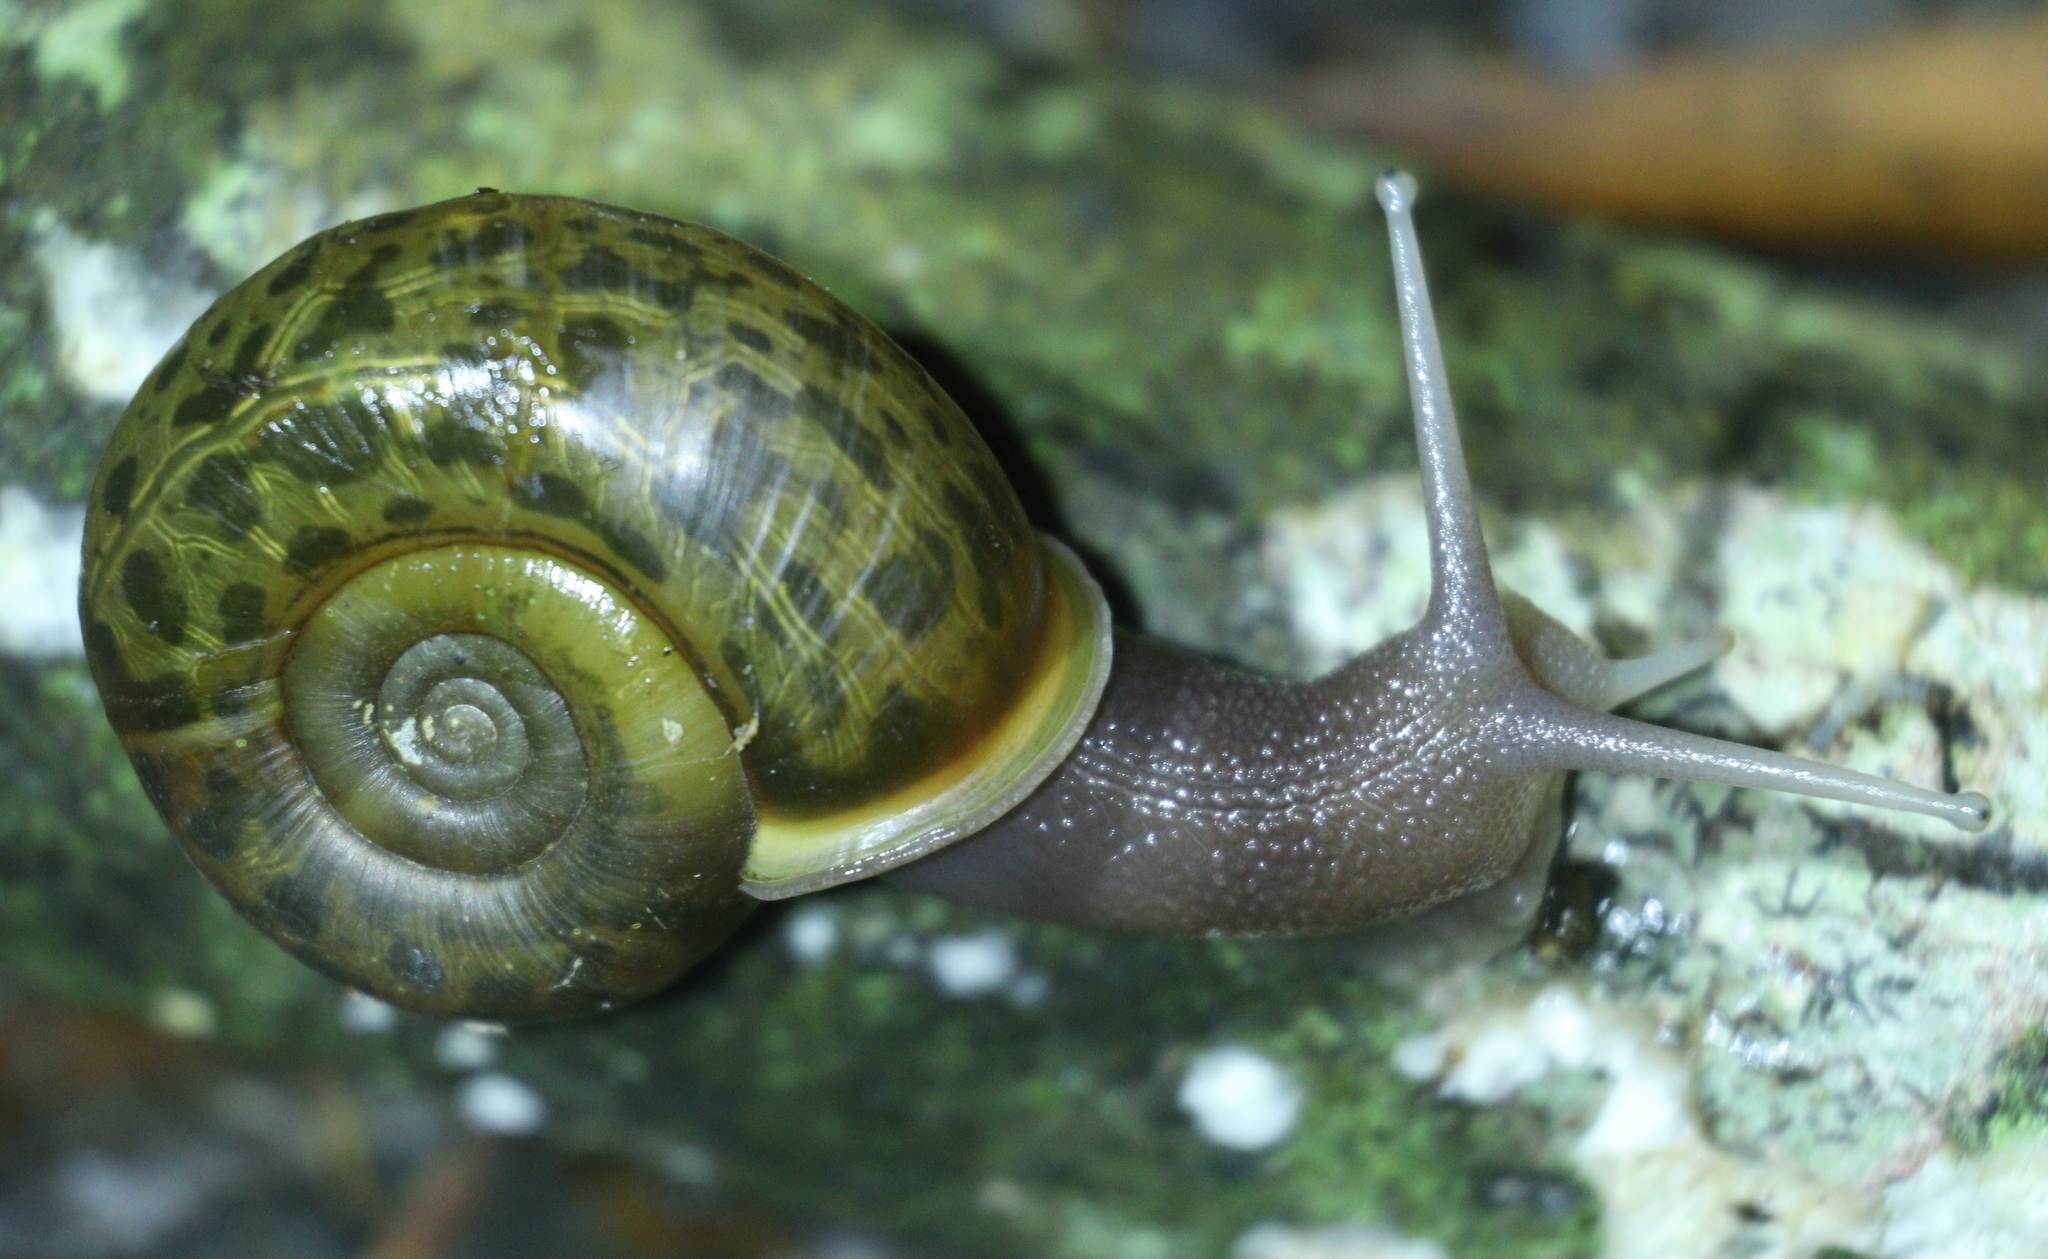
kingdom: Animalia
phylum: Mollusca
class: Gastropoda
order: Stylommatophora
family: Elonidae
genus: Elona
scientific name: Elona quimperiana
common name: Quimper snail
